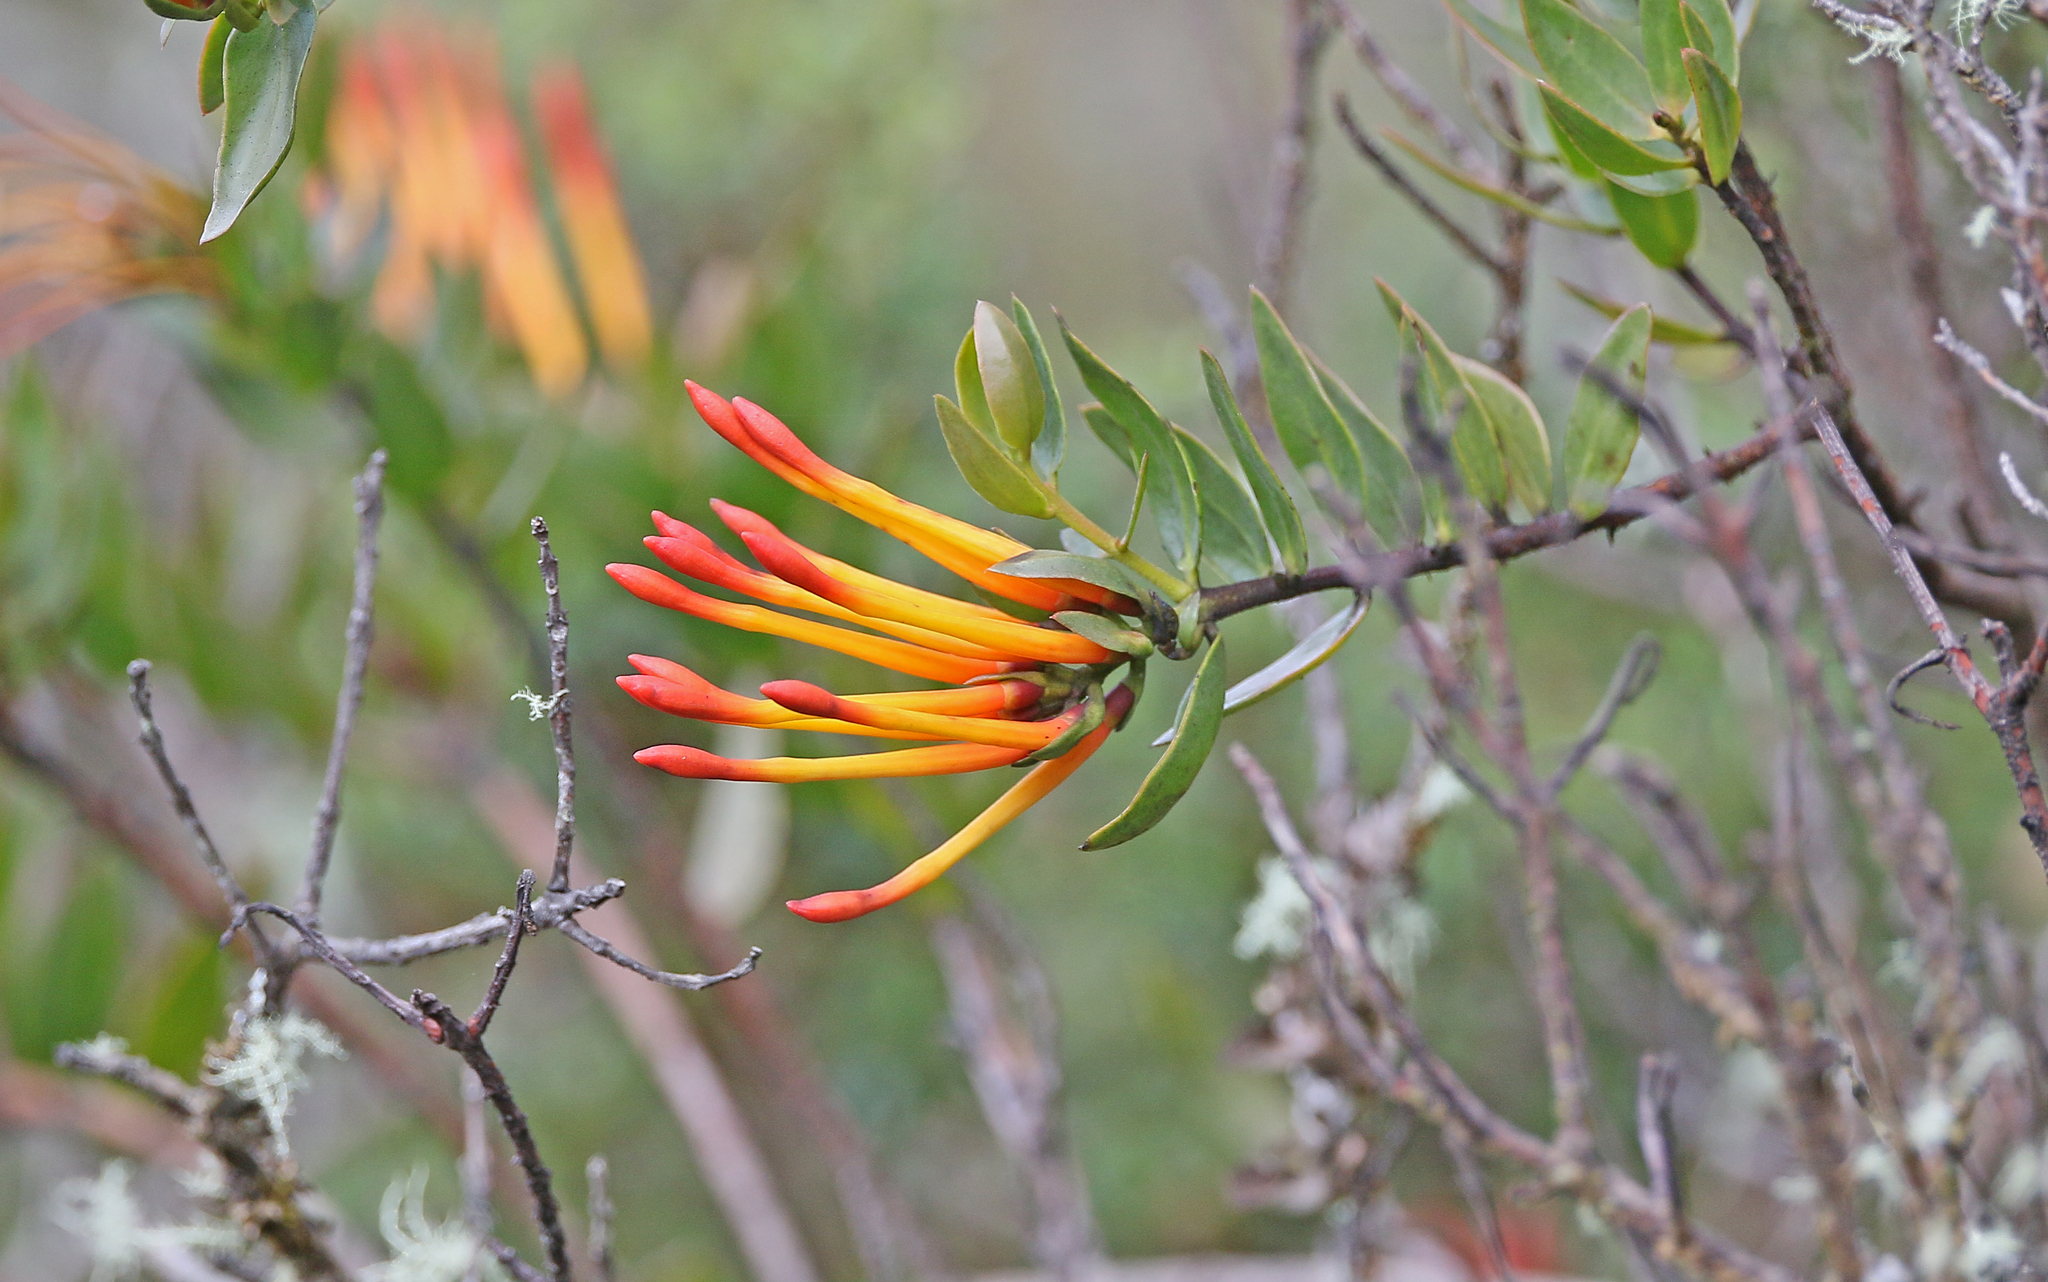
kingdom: Plantae
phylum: Tracheophyta
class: Magnoliopsida
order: Santalales
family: Loranthaceae
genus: Tristerix
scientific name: Tristerix longibracteatus
